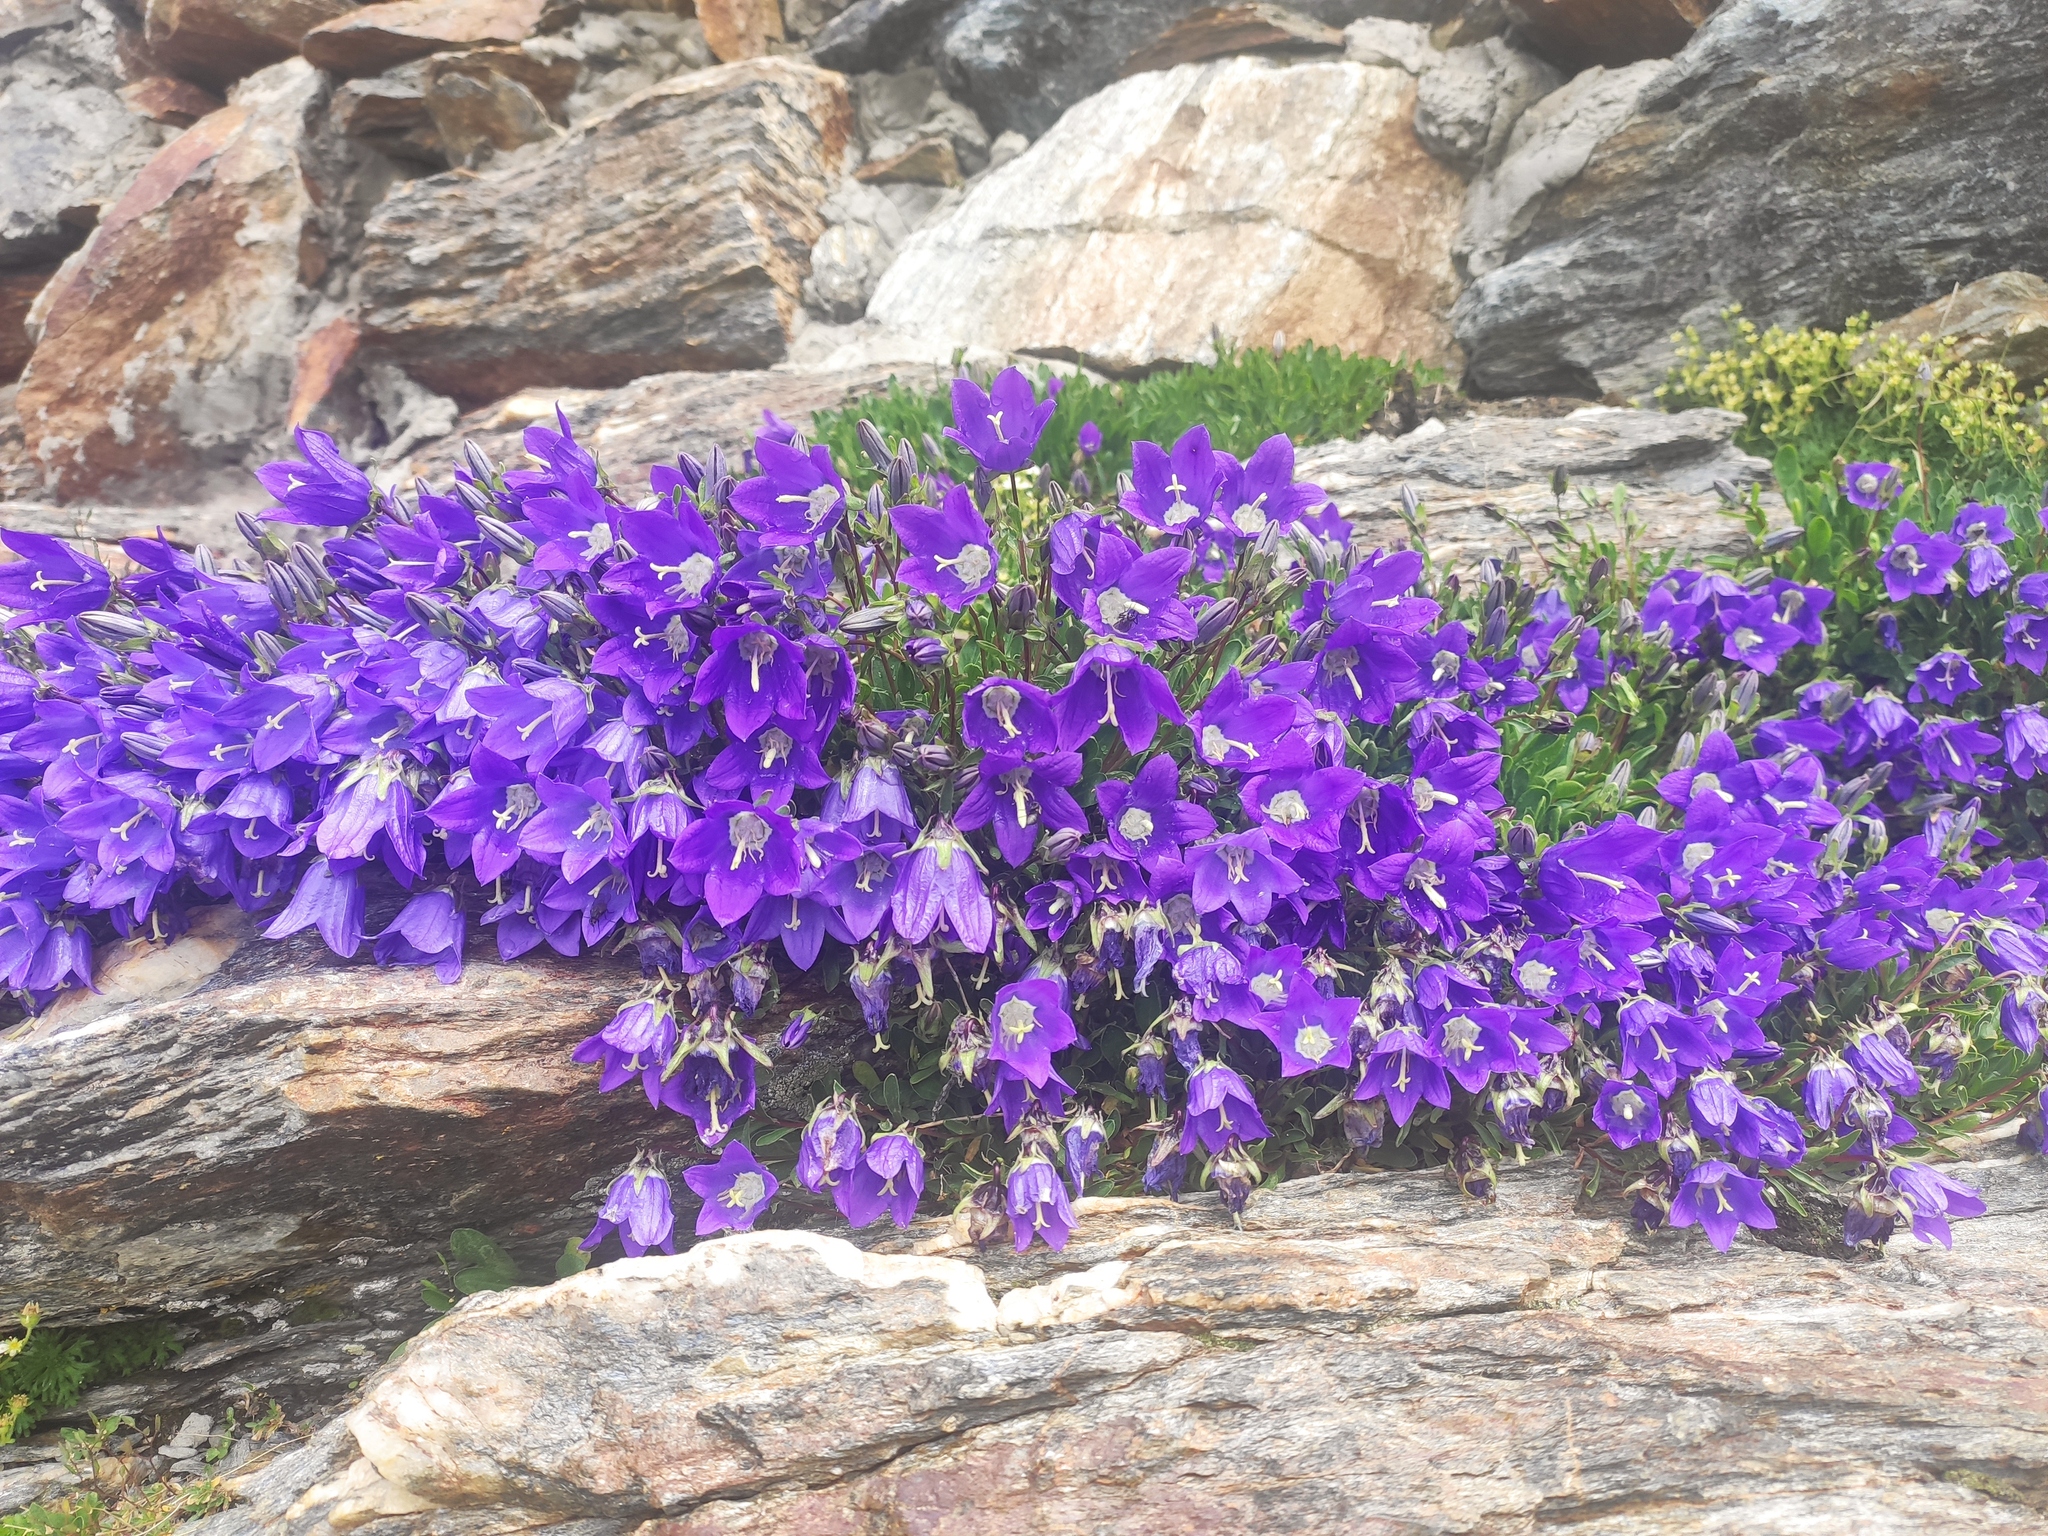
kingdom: Plantae
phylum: Tracheophyta
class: Magnoliopsida
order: Asterales
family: Campanulaceae
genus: Campanula
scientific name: Campanula saxifraga
